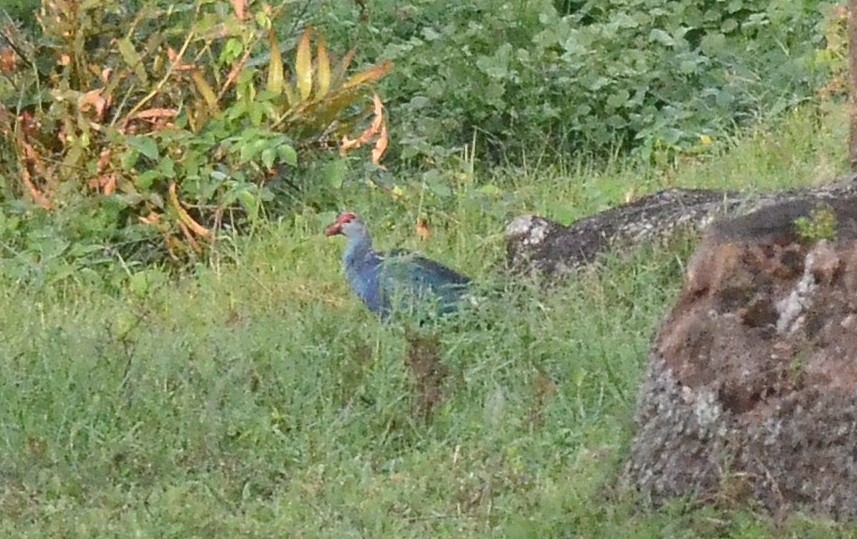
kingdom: Animalia
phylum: Chordata
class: Aves
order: Gruiformes
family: Rallidae
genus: Porphyrio
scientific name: Porphyrio porphyrio
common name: Purple swamphen
